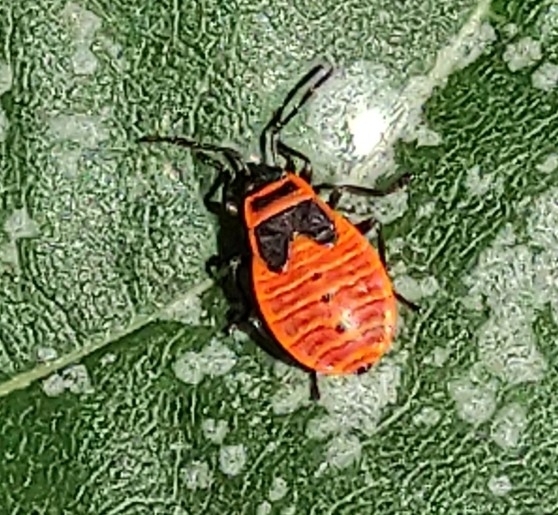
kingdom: Animalia
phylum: Arthropoda
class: Insecta
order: Hemiptera
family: Pyrrhocoridae
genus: Pyrrhocoris
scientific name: Pyrrhocoris apterus
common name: Firebug
